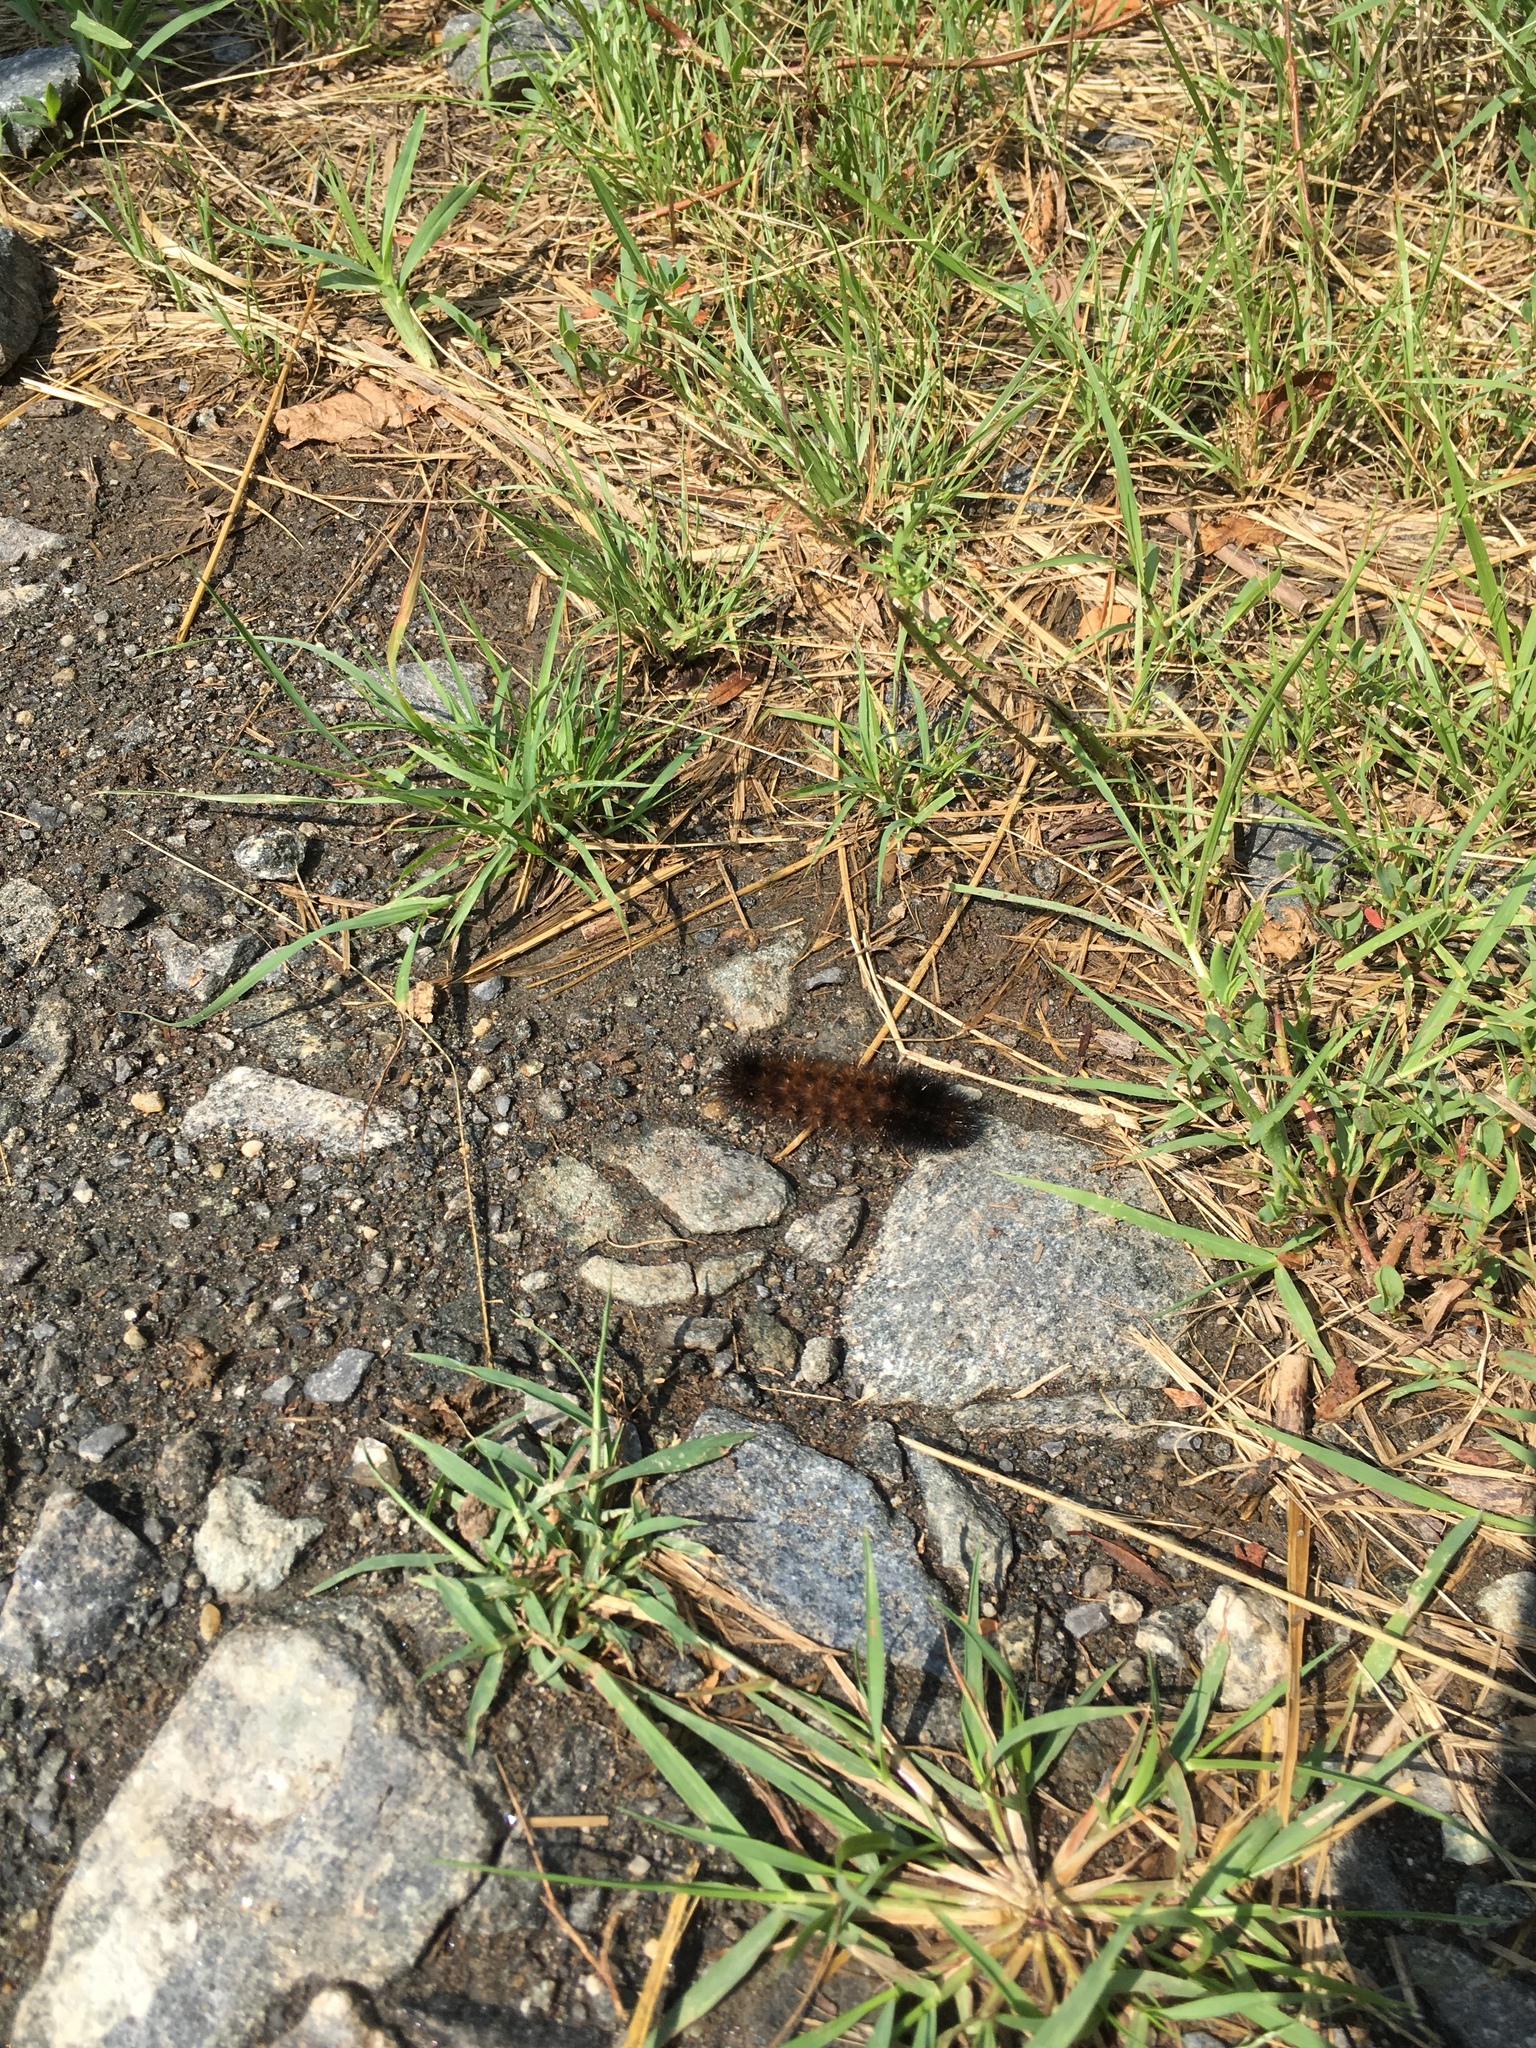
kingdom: Animalia
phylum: Arthropoda
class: Insecta
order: Lepidoptera
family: Erebidae
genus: Pyrrharctia
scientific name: Pyrrharctia isabella
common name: Isabella tiger moth
